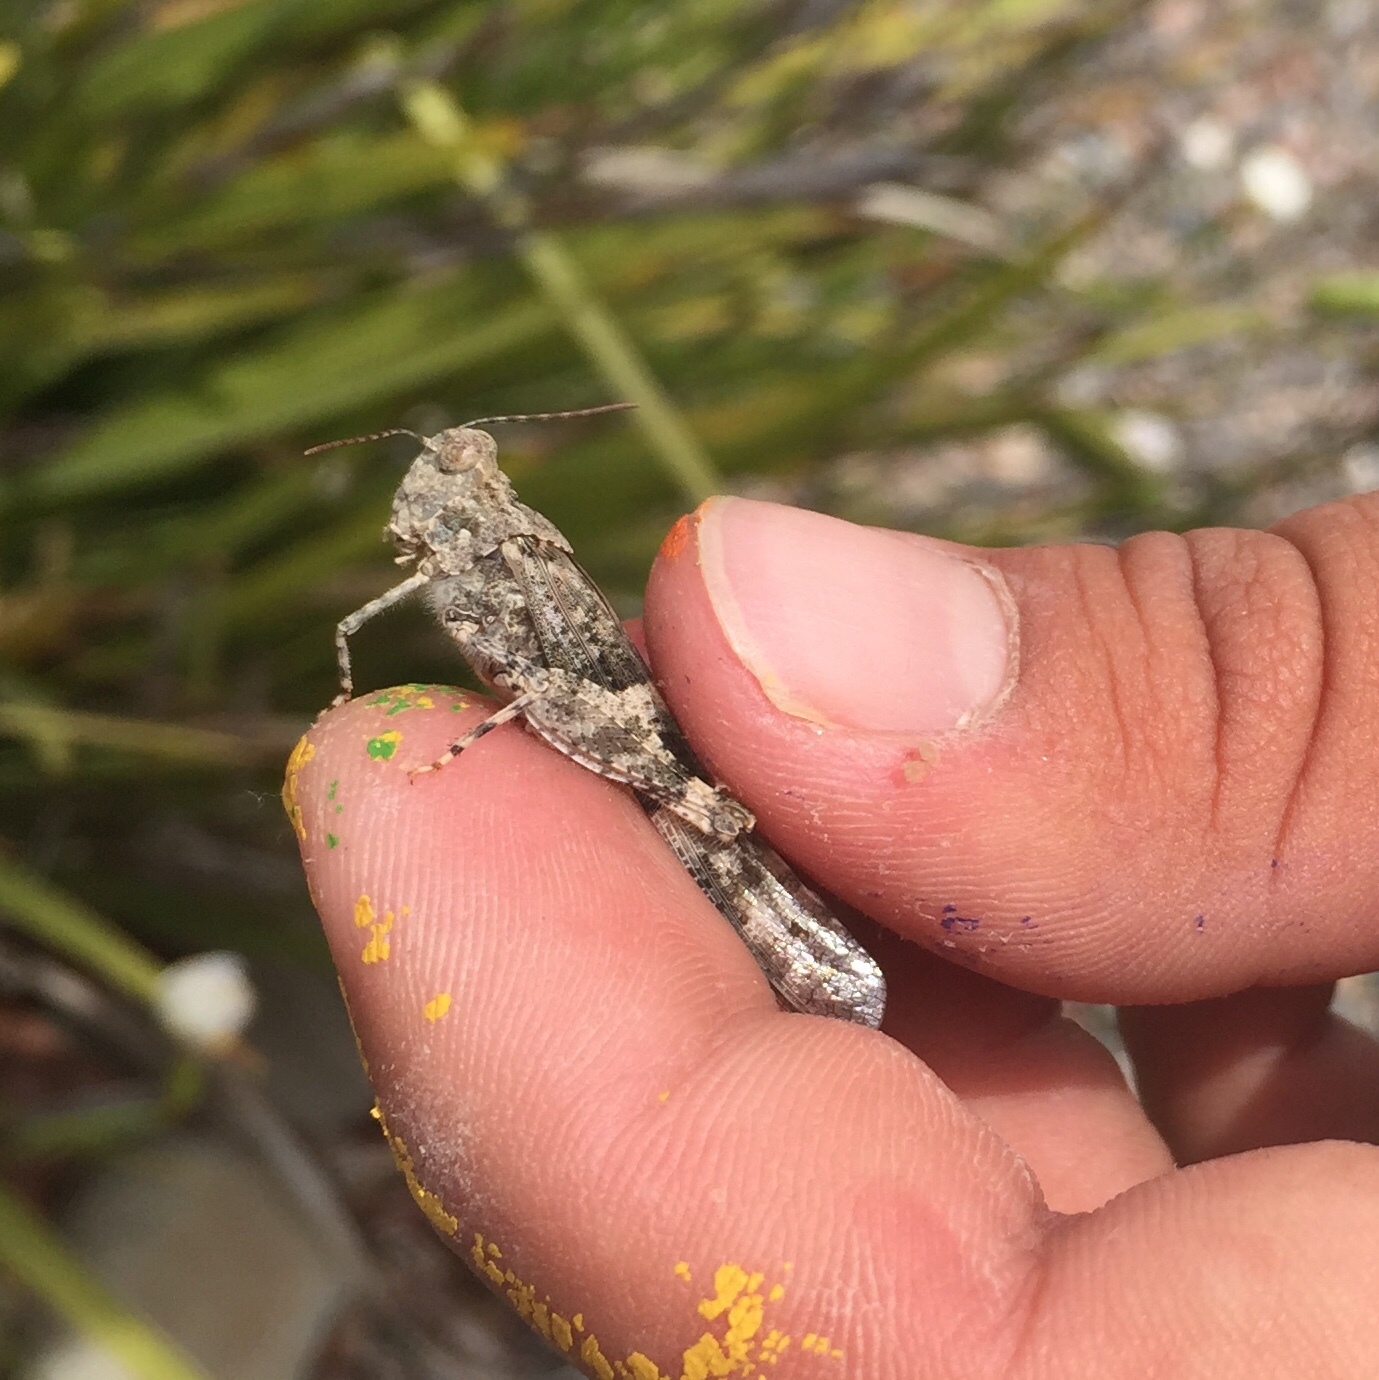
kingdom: Animalia
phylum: Arthropoda
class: Insecta
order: Orthoptera
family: Acrididae
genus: Trimerotropis
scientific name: Trimerotropis pallidipennis
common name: Pallid-winged grasshopper
